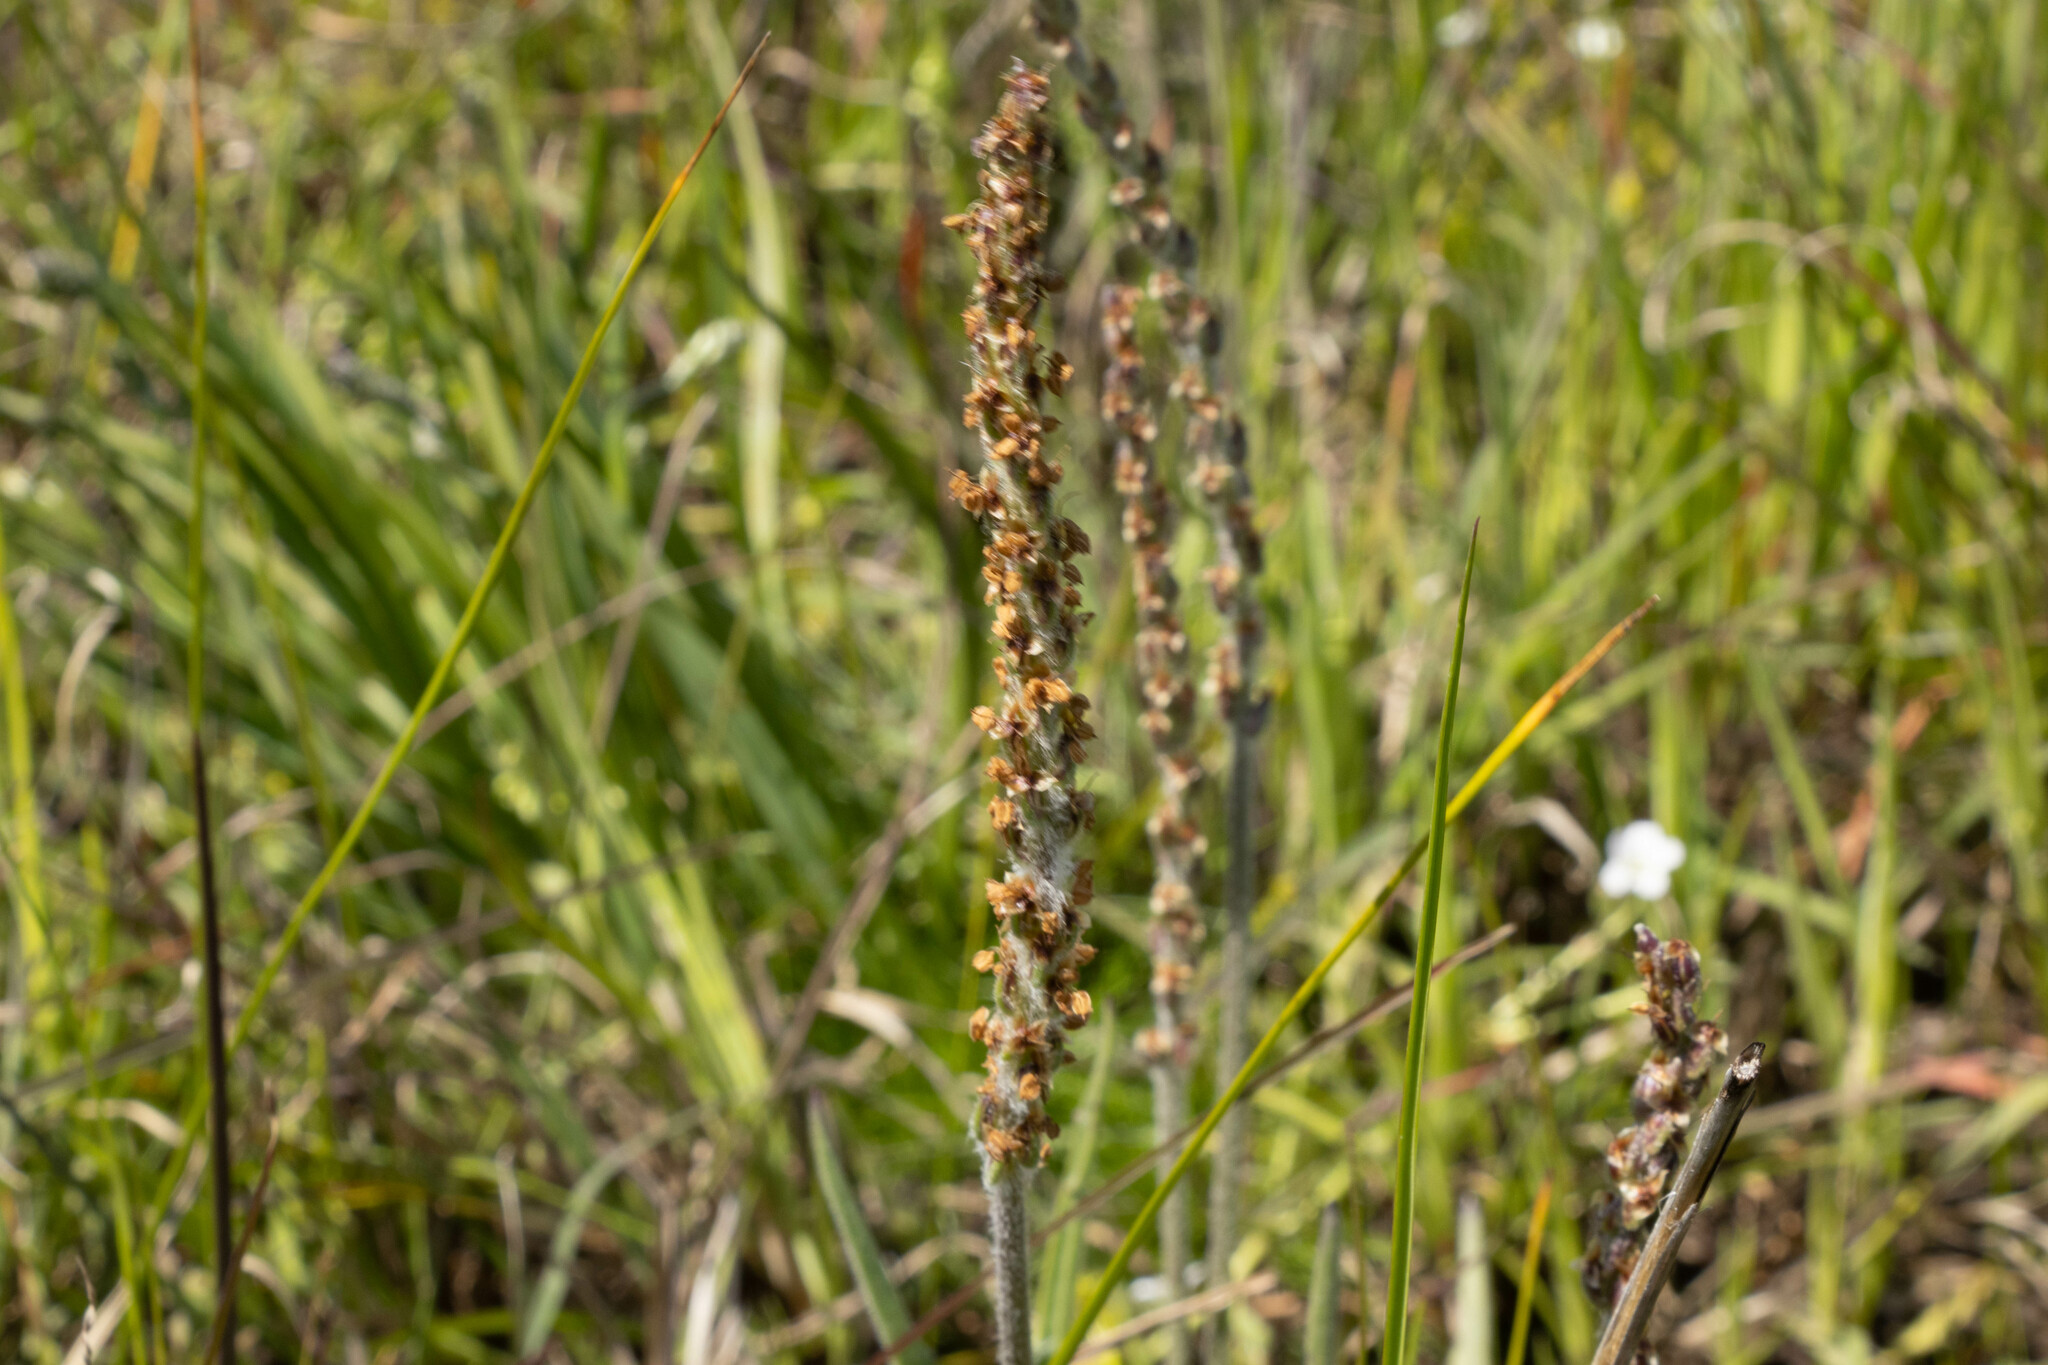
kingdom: Plantae
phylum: Tracheophyta
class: Magnoliopsida
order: Lamiales
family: Plantaginaceae
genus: Plantago
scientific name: Plantago gaudichaudii
